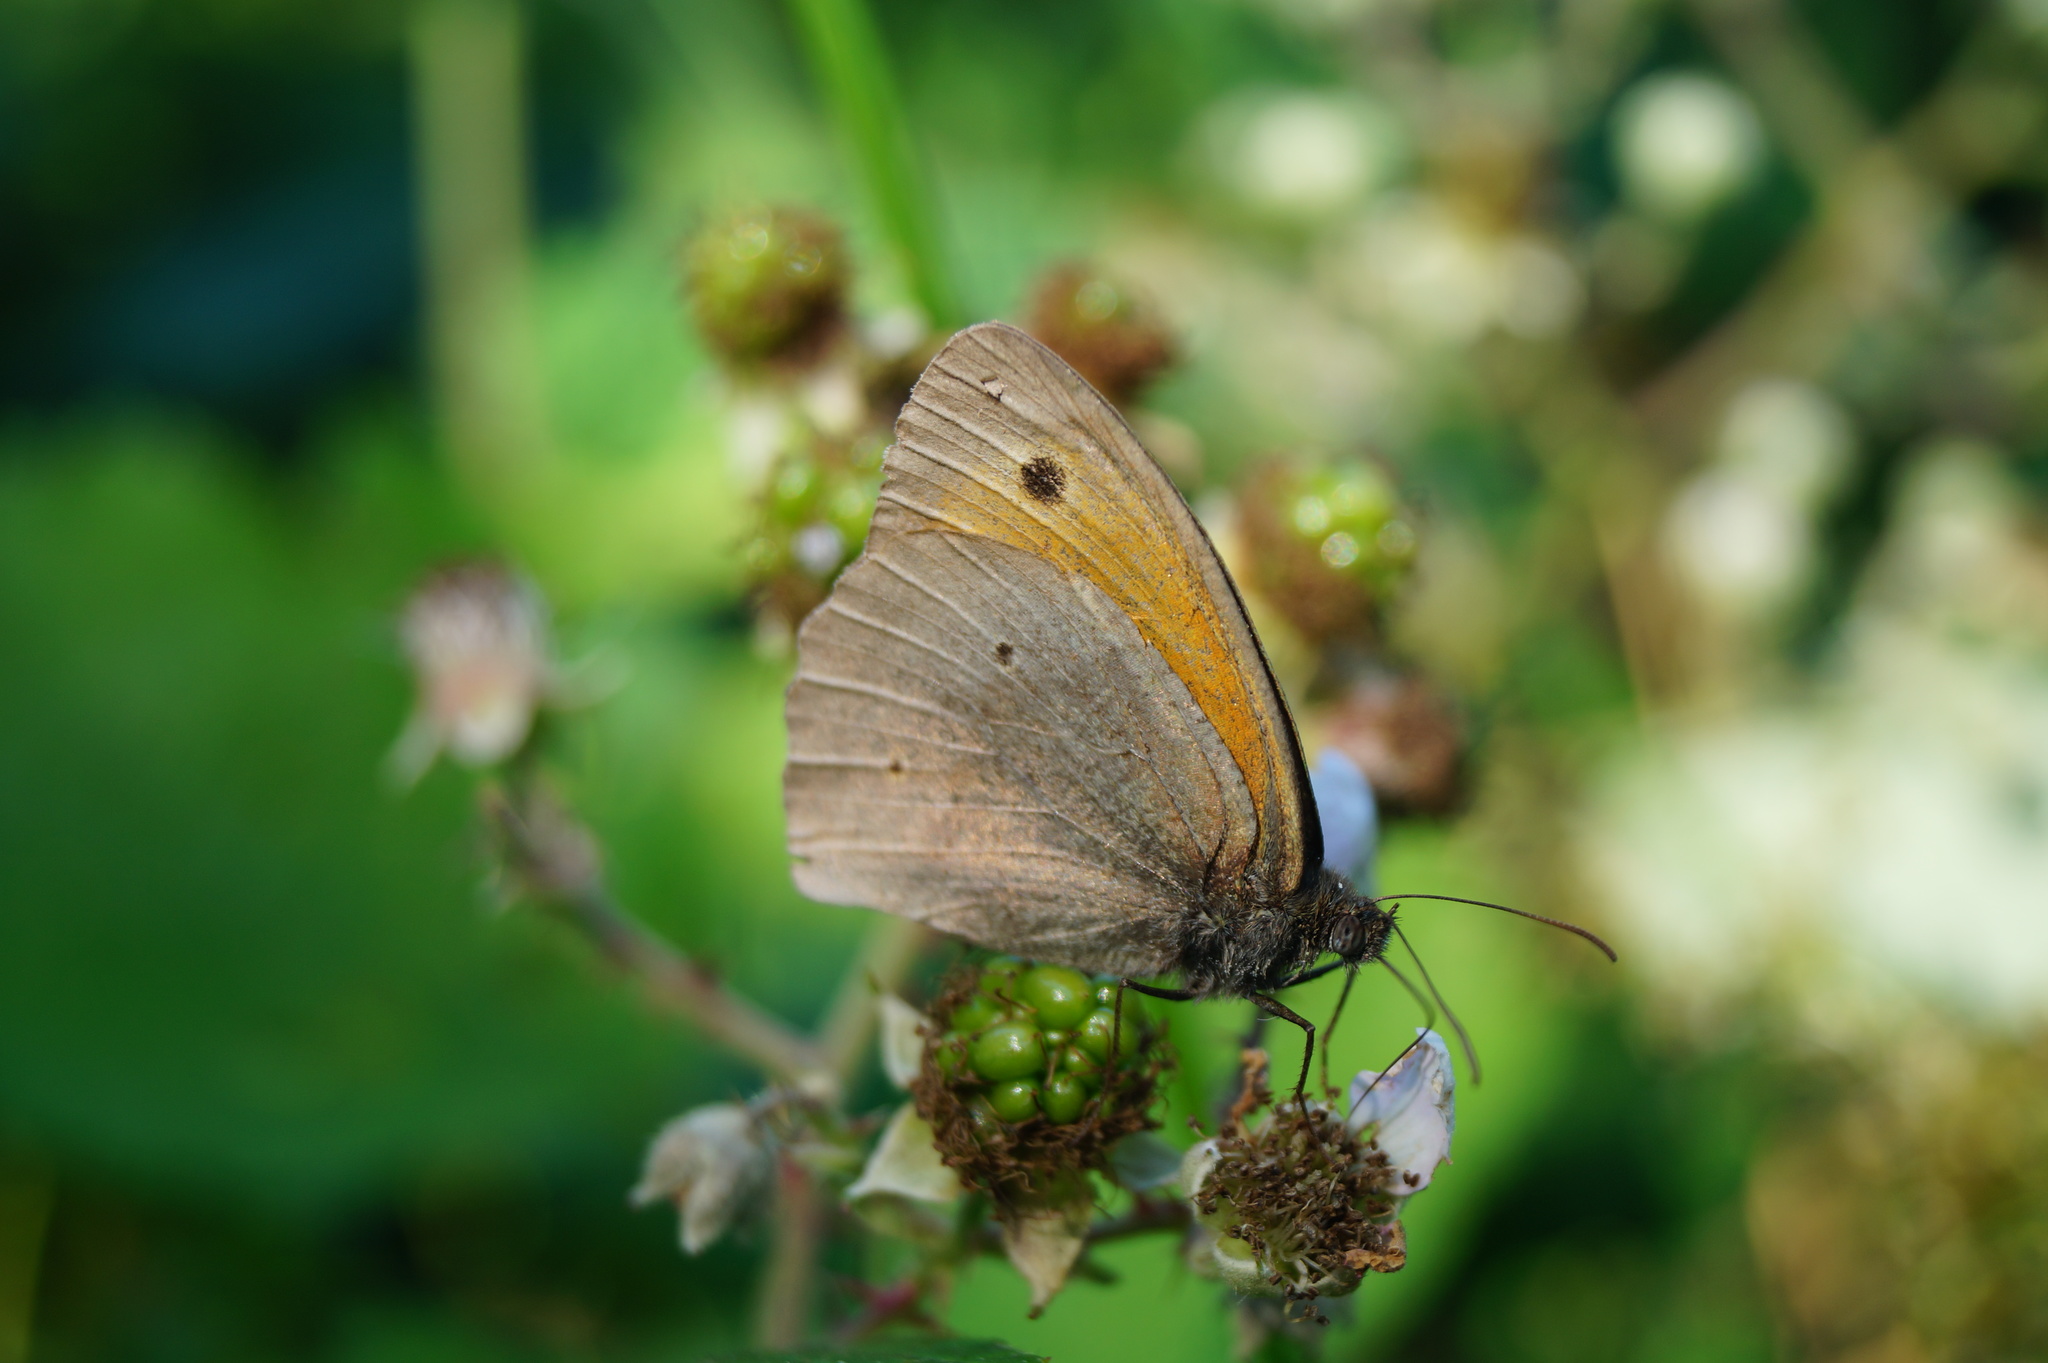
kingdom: Animalia
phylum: Arthropoda
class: Insecta
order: Lepidoptera
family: Nymphalidae
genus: Maniola
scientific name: Maniola jurtina
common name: Meadow brown
